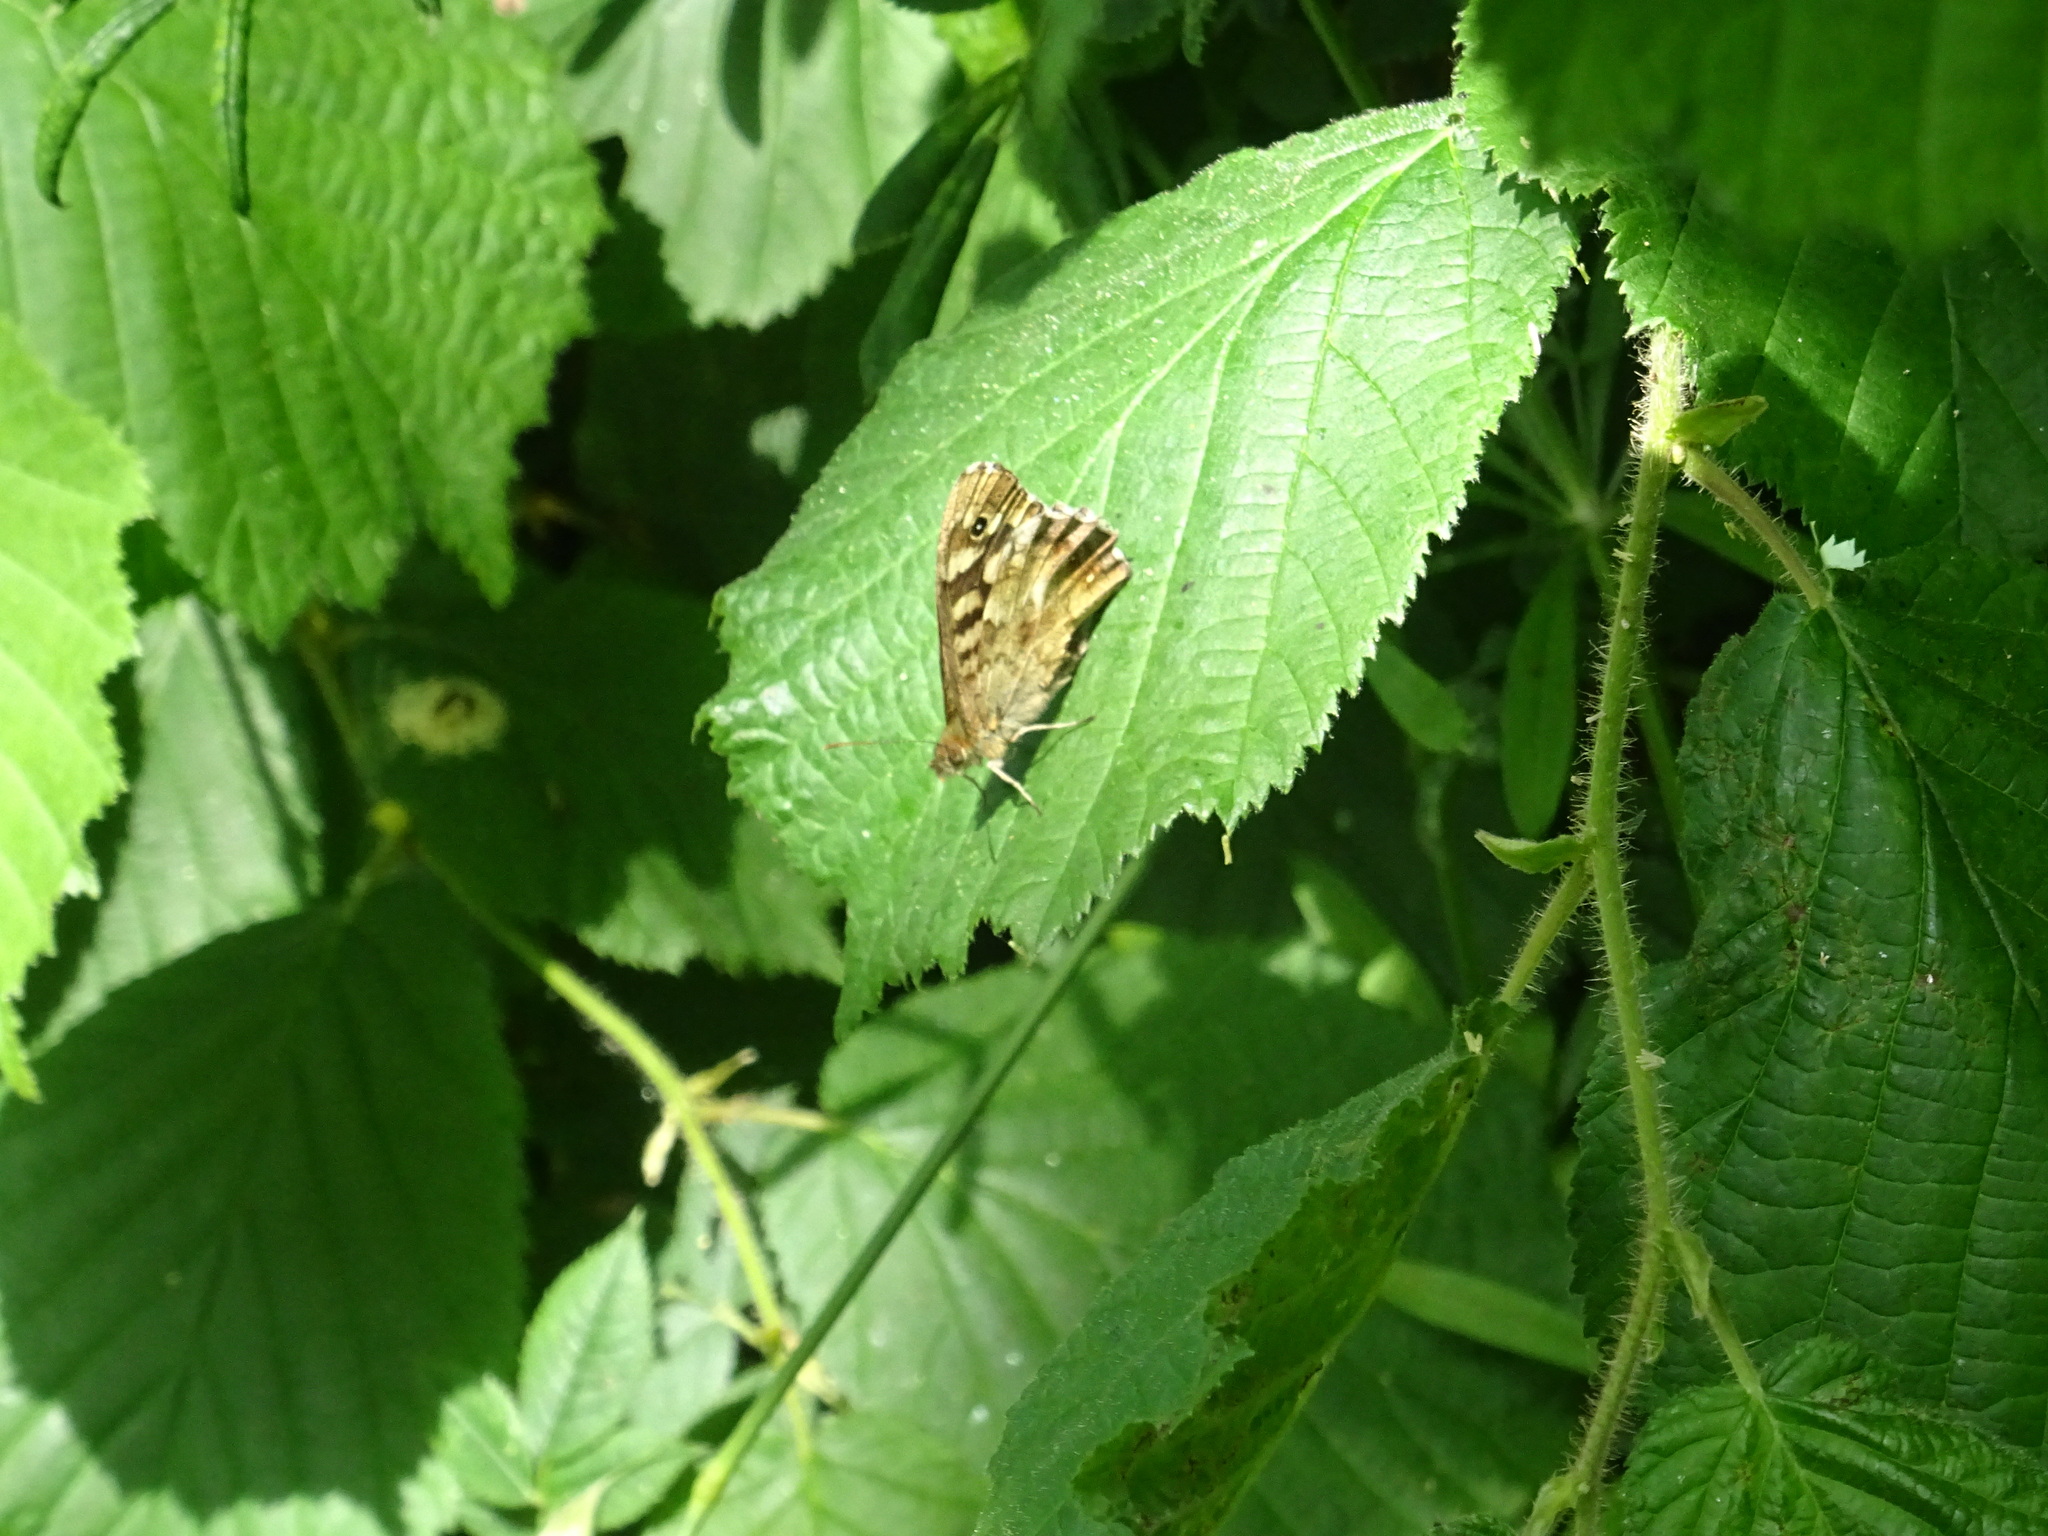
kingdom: Animalia
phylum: Arthropoda
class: Insecta
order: Lepidoptera
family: Nymphalidae
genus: Pararge
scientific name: Pararge aegeria
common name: Speckled wood
